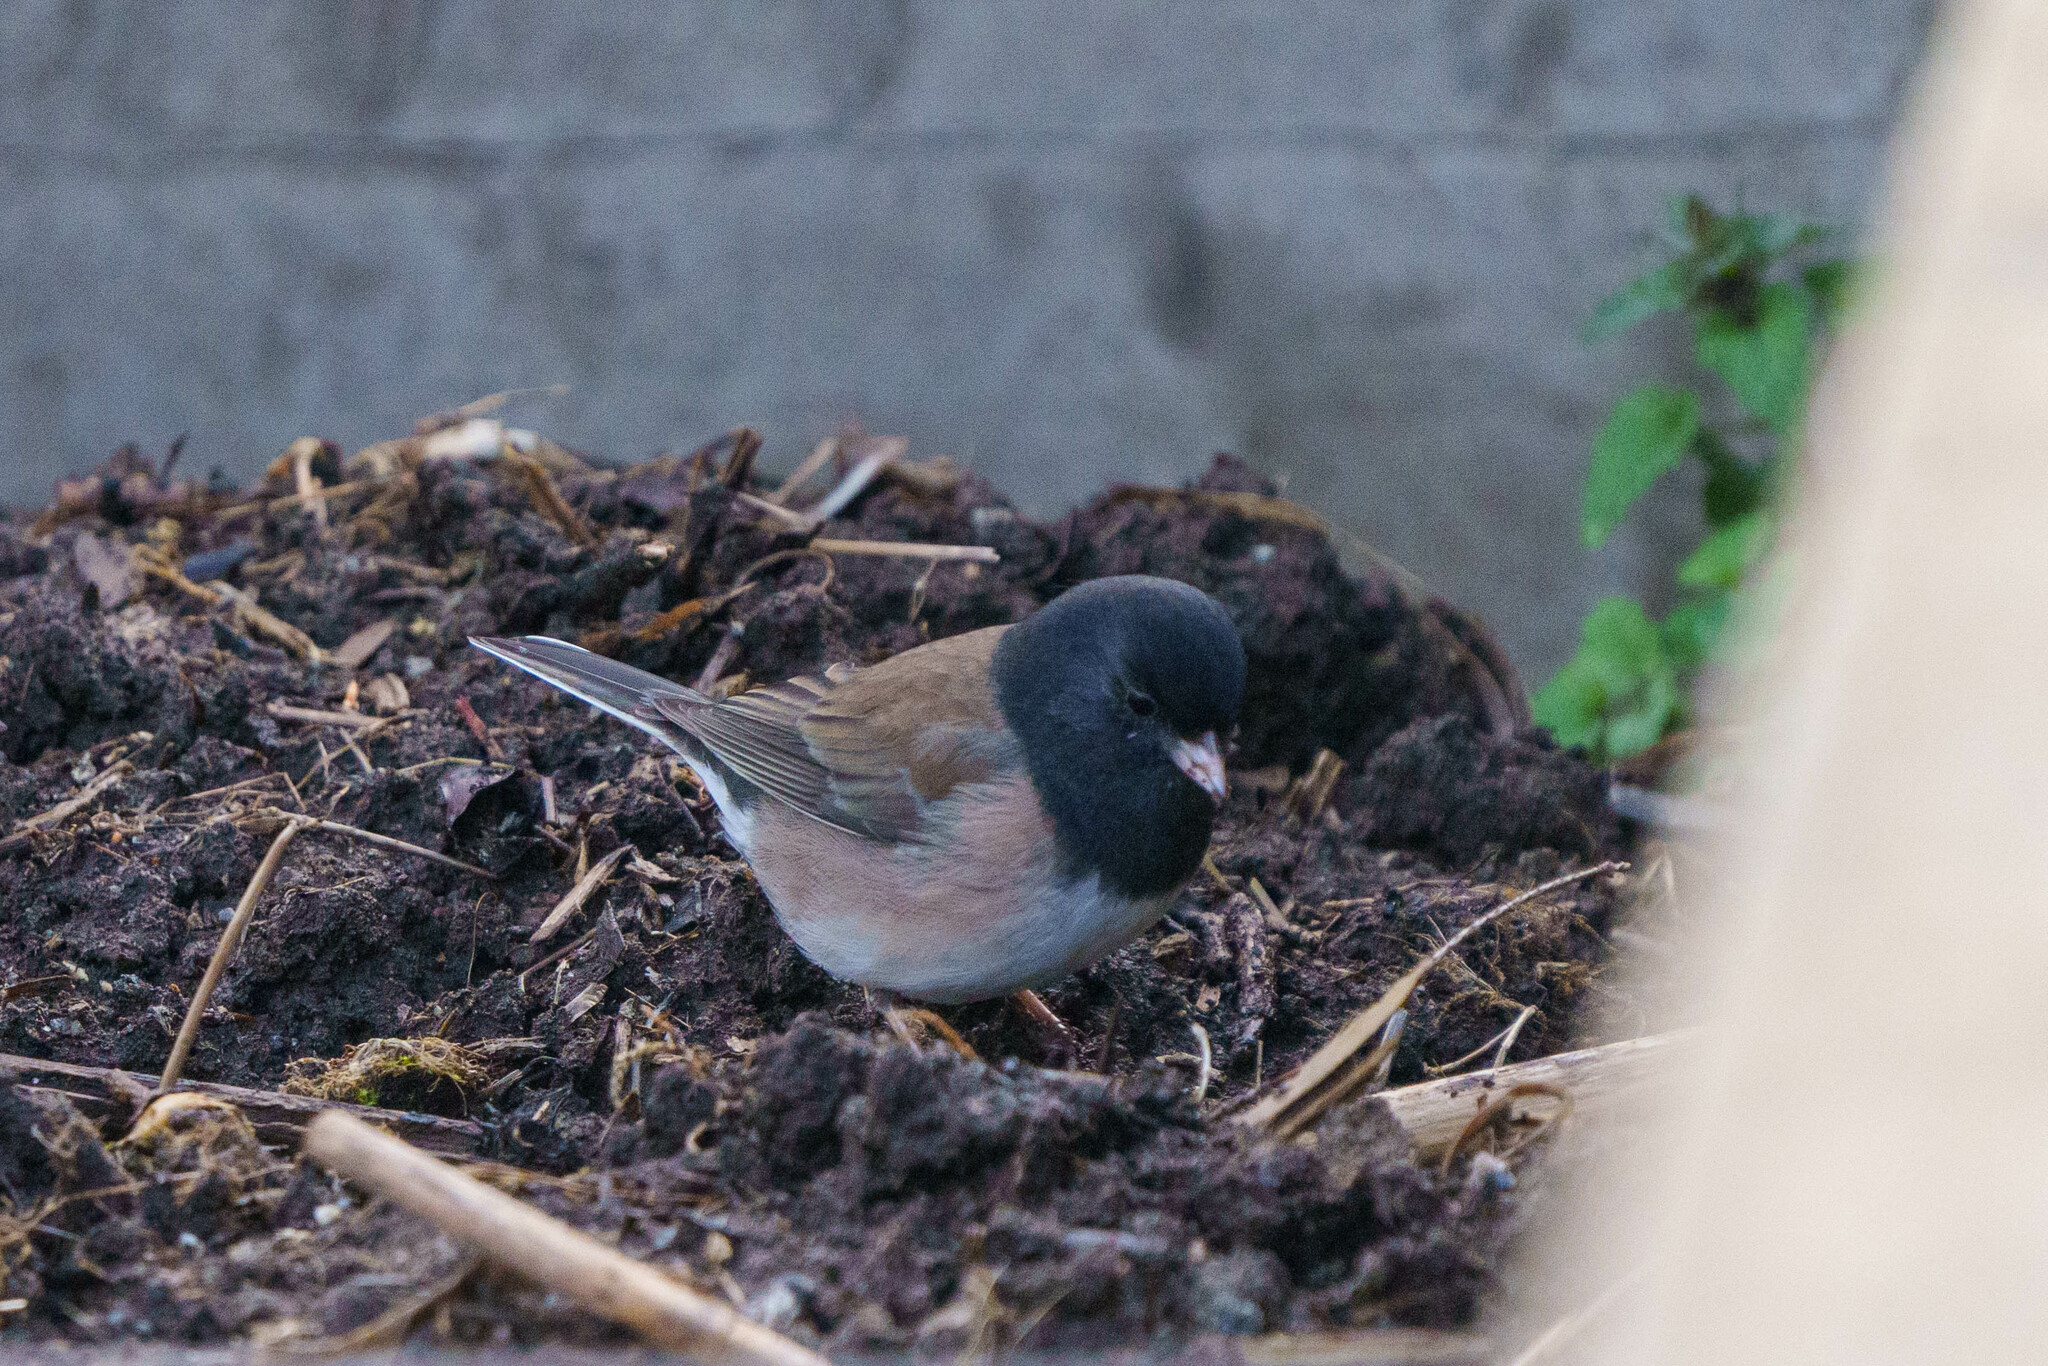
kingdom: Animalia
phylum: Chordata
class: Aves
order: Passeriformes
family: Passerellidae
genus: Junco
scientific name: Junco hyemalis
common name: Dark-eyed junco
